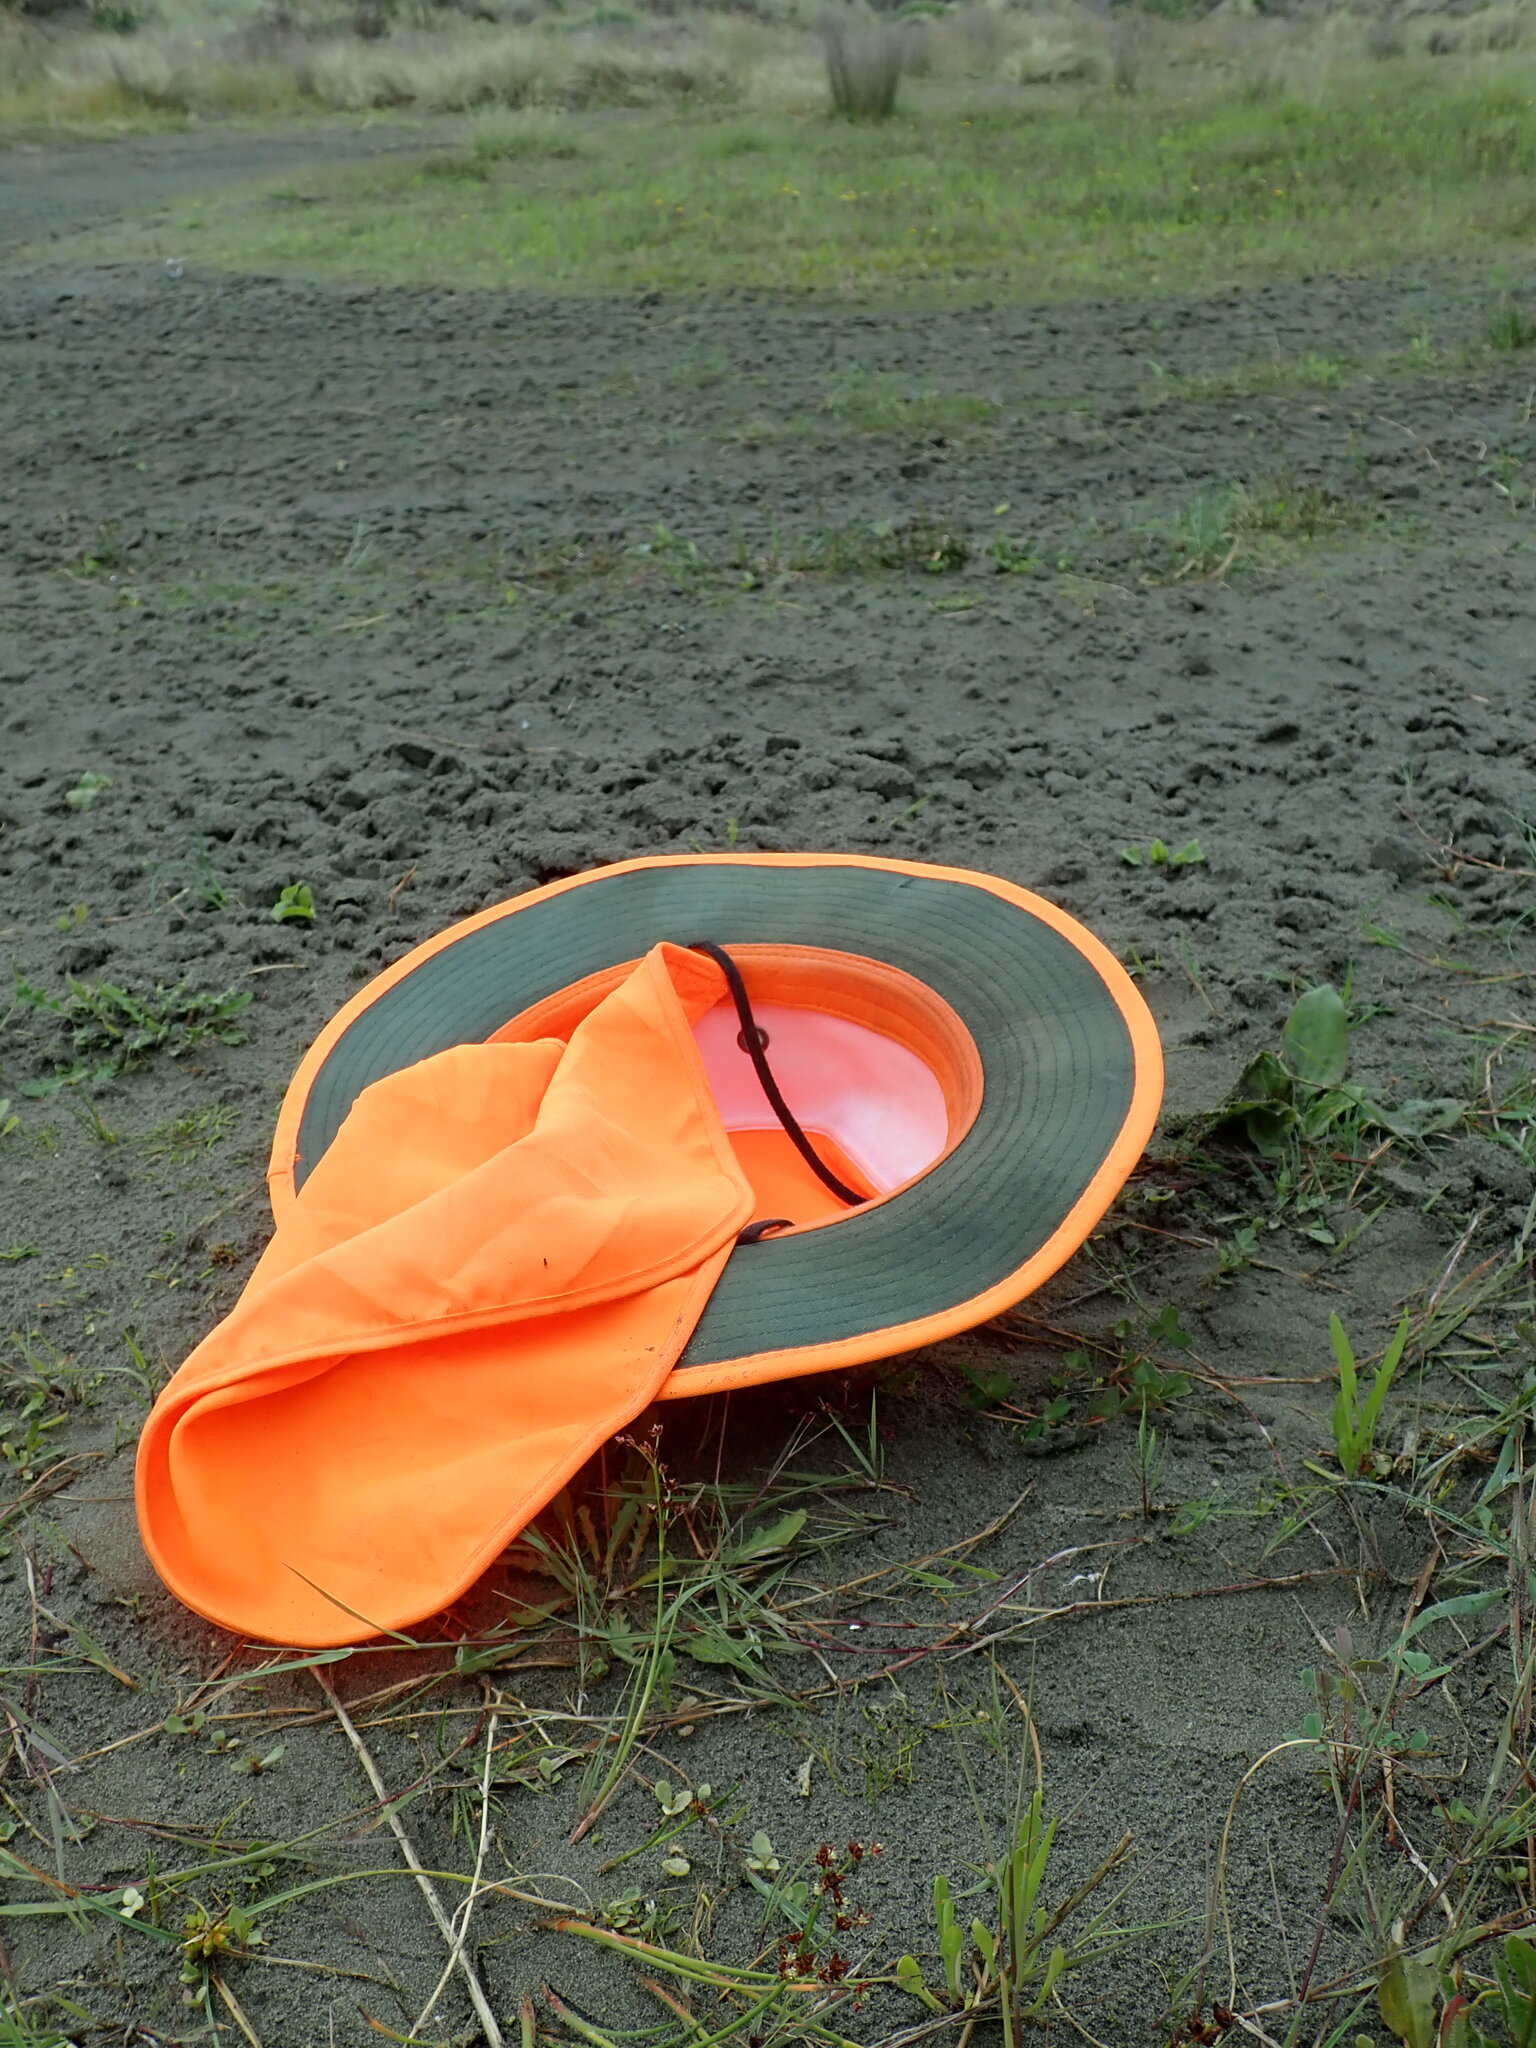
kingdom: Plantae
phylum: Tracheophyta
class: Magnoliopsida
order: Apiales
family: Apiaceae
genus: Lilaeopsis
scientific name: Lilaeopsis novae-zelandiae
